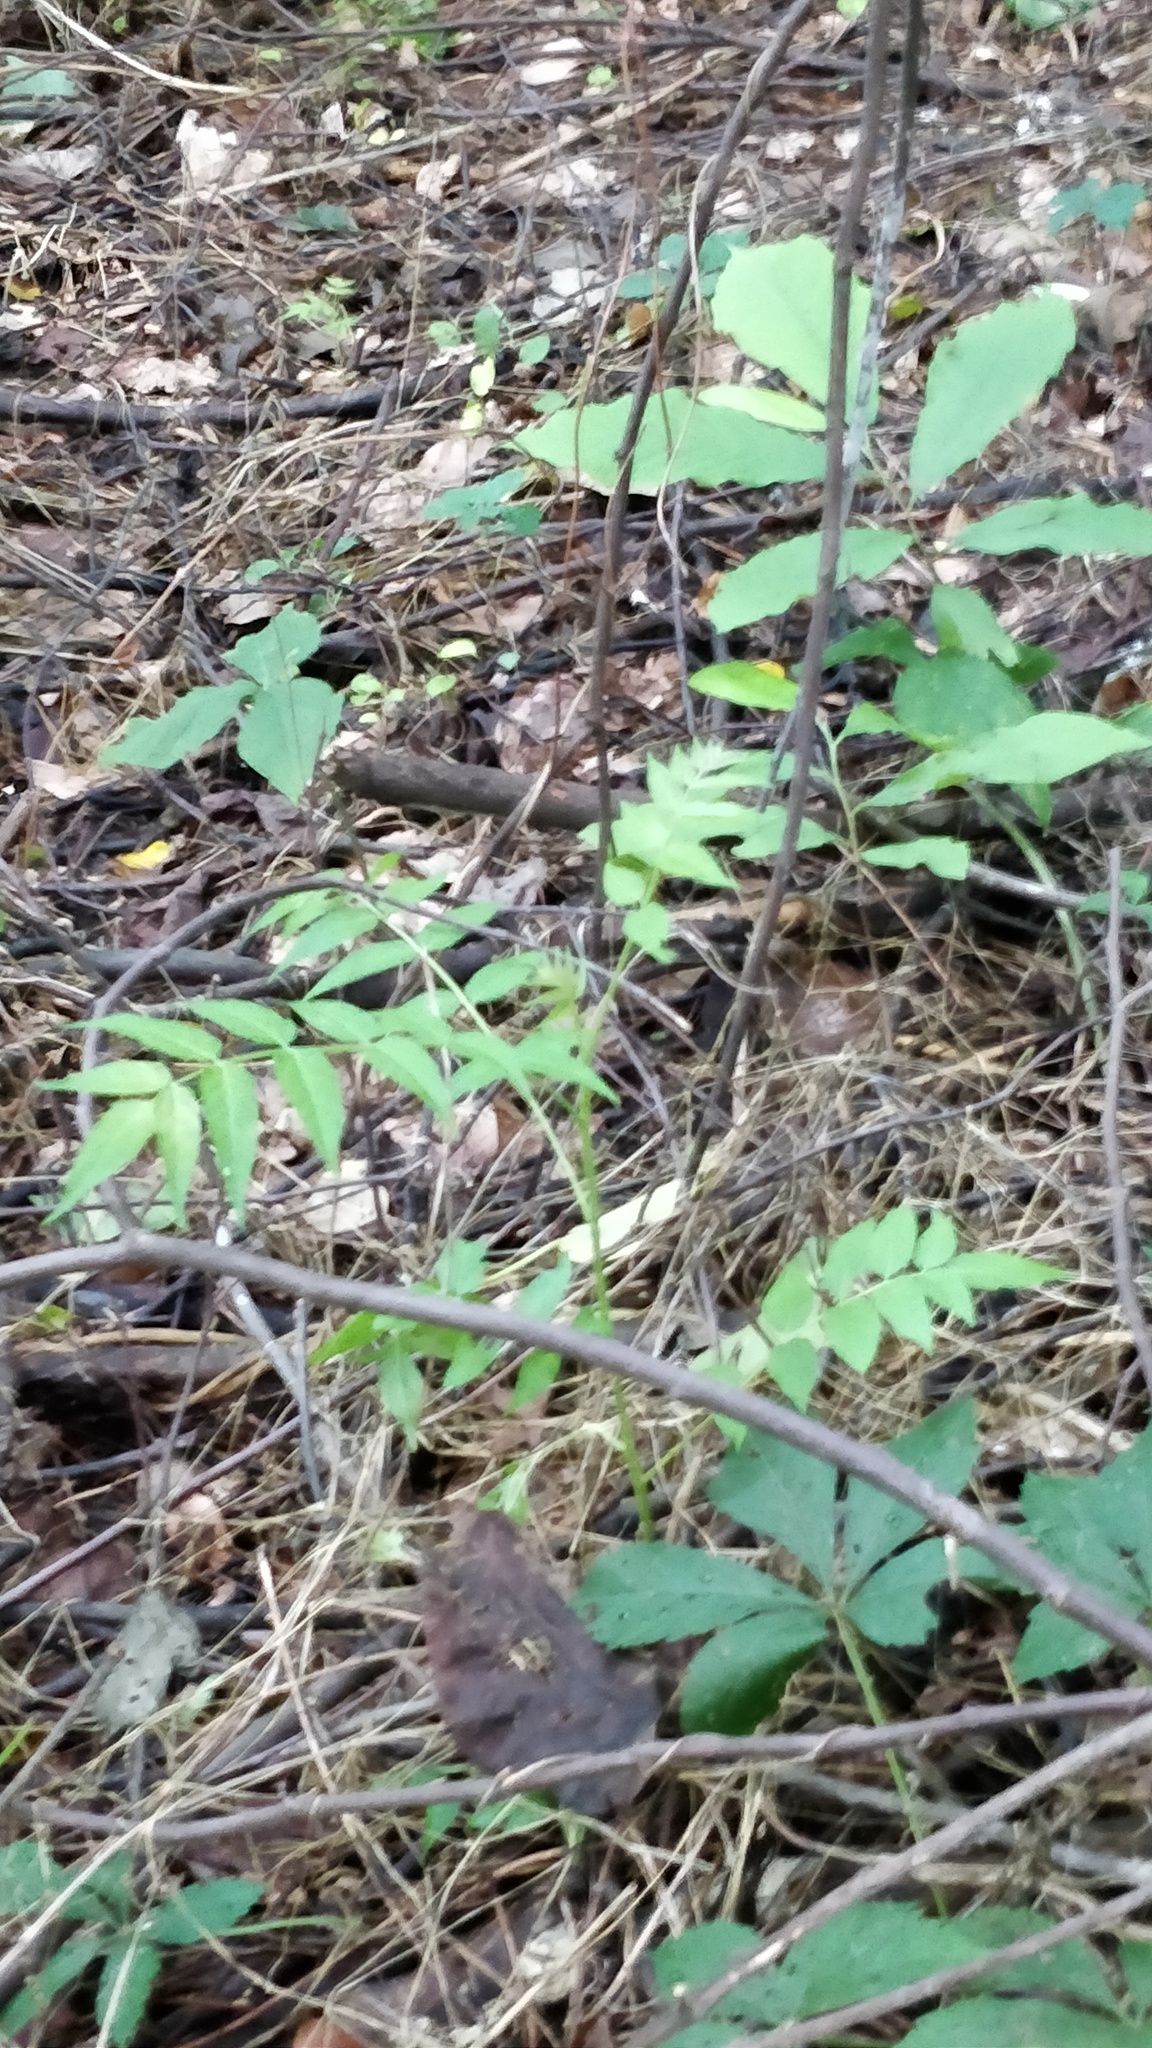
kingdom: Plantae
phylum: Tracheophyta
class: Magnoliopsida
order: Sapindales
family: Simaroubaceae
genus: Ailanthus
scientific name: Ailanthus altissima
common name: Tree-of-heaven
